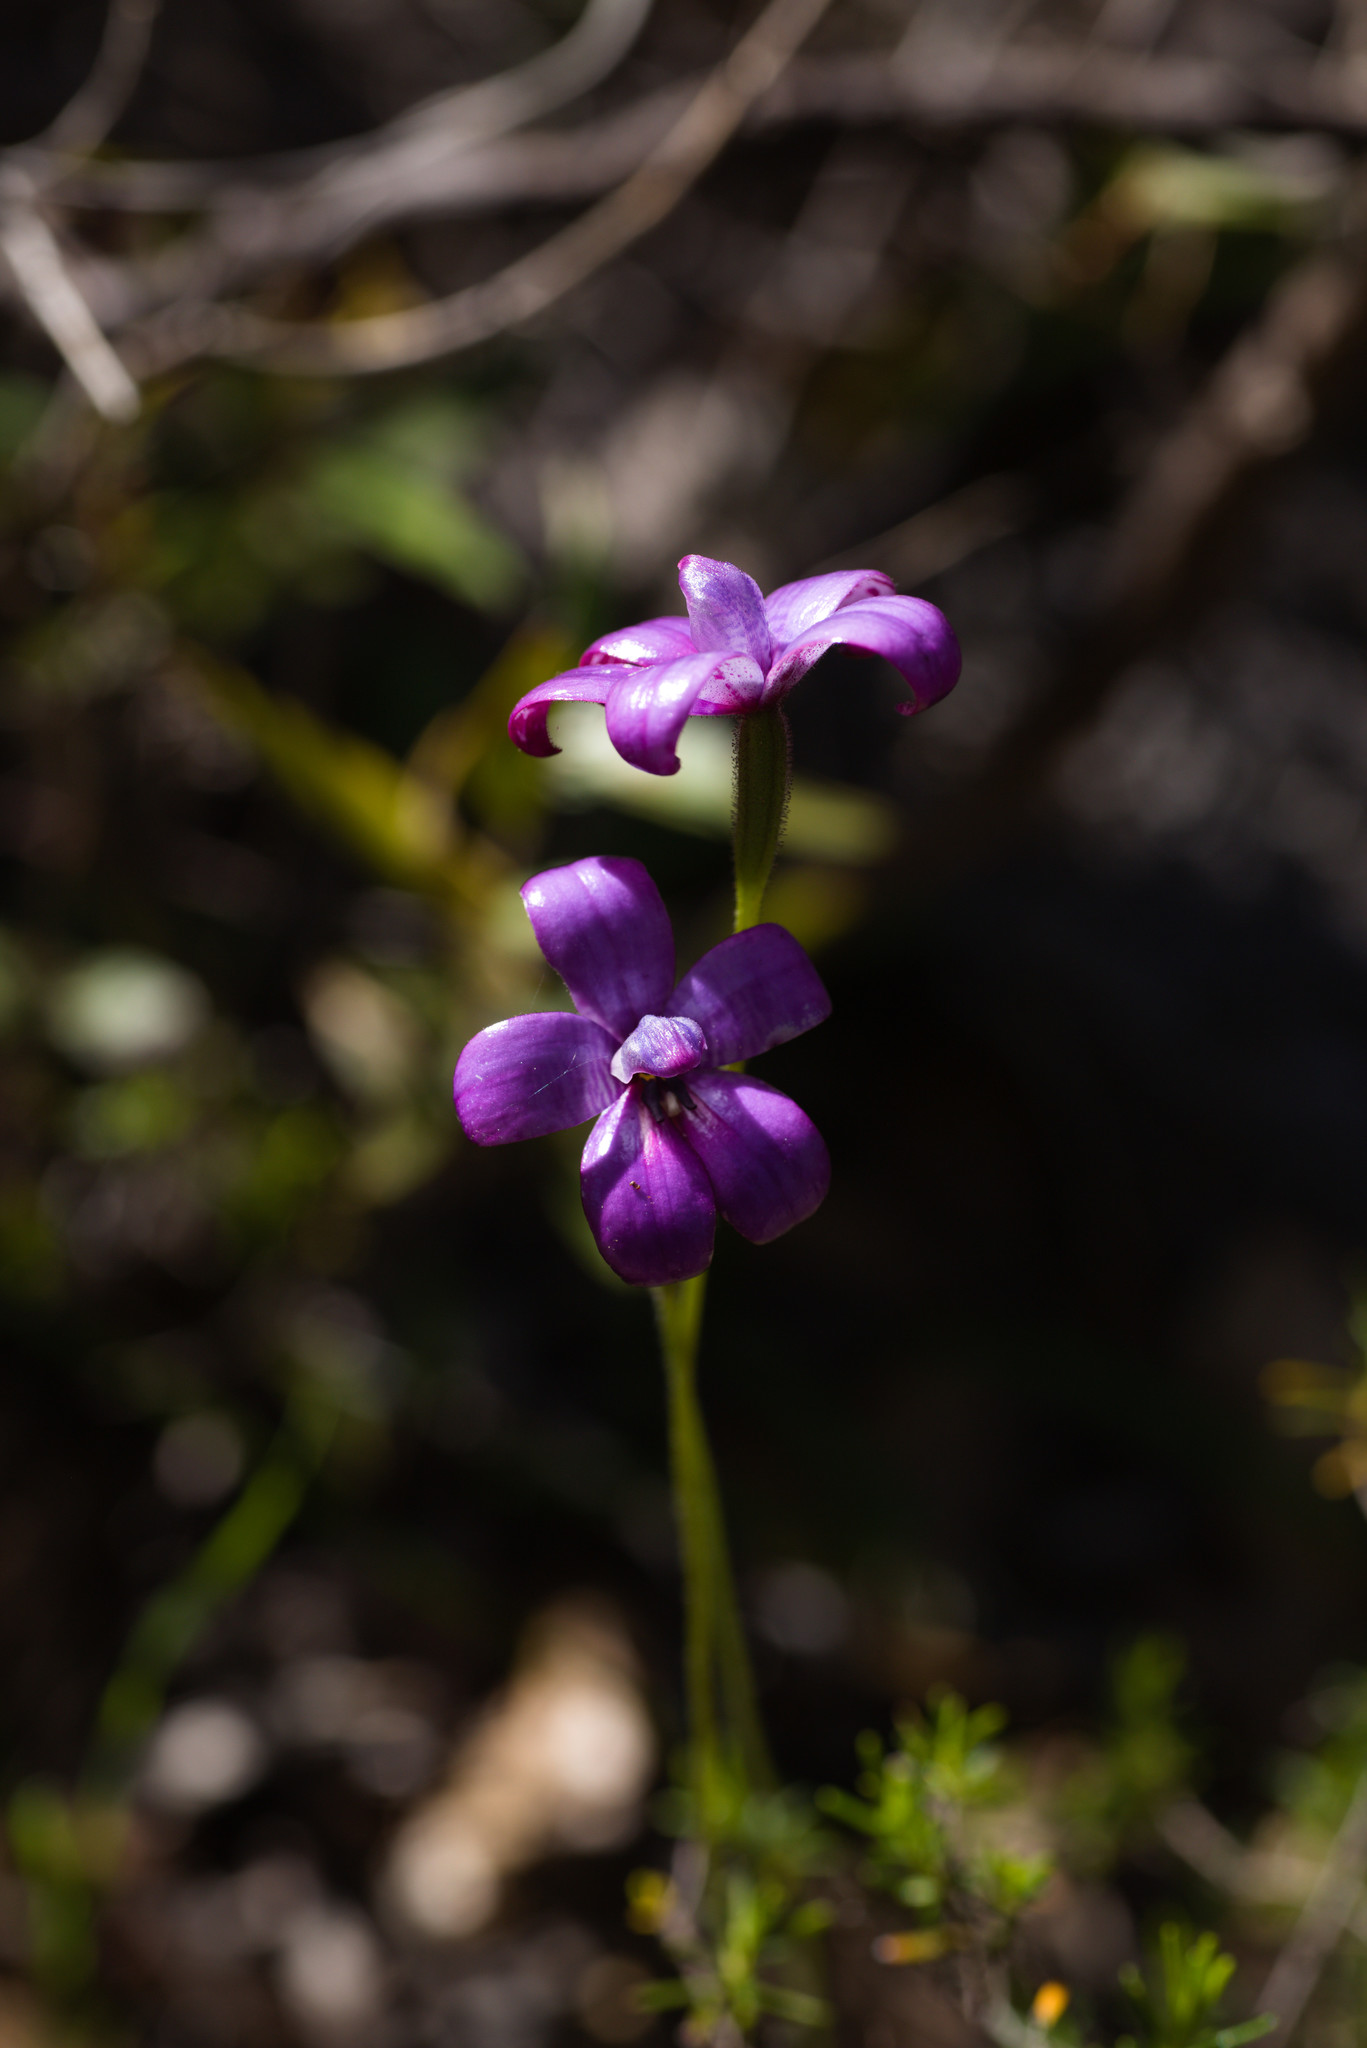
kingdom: Plantae
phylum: Tracheophyta
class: Liliopsida
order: Asparagales
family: Orchidaceae
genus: Caladenia
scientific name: Caladenia brunonis
